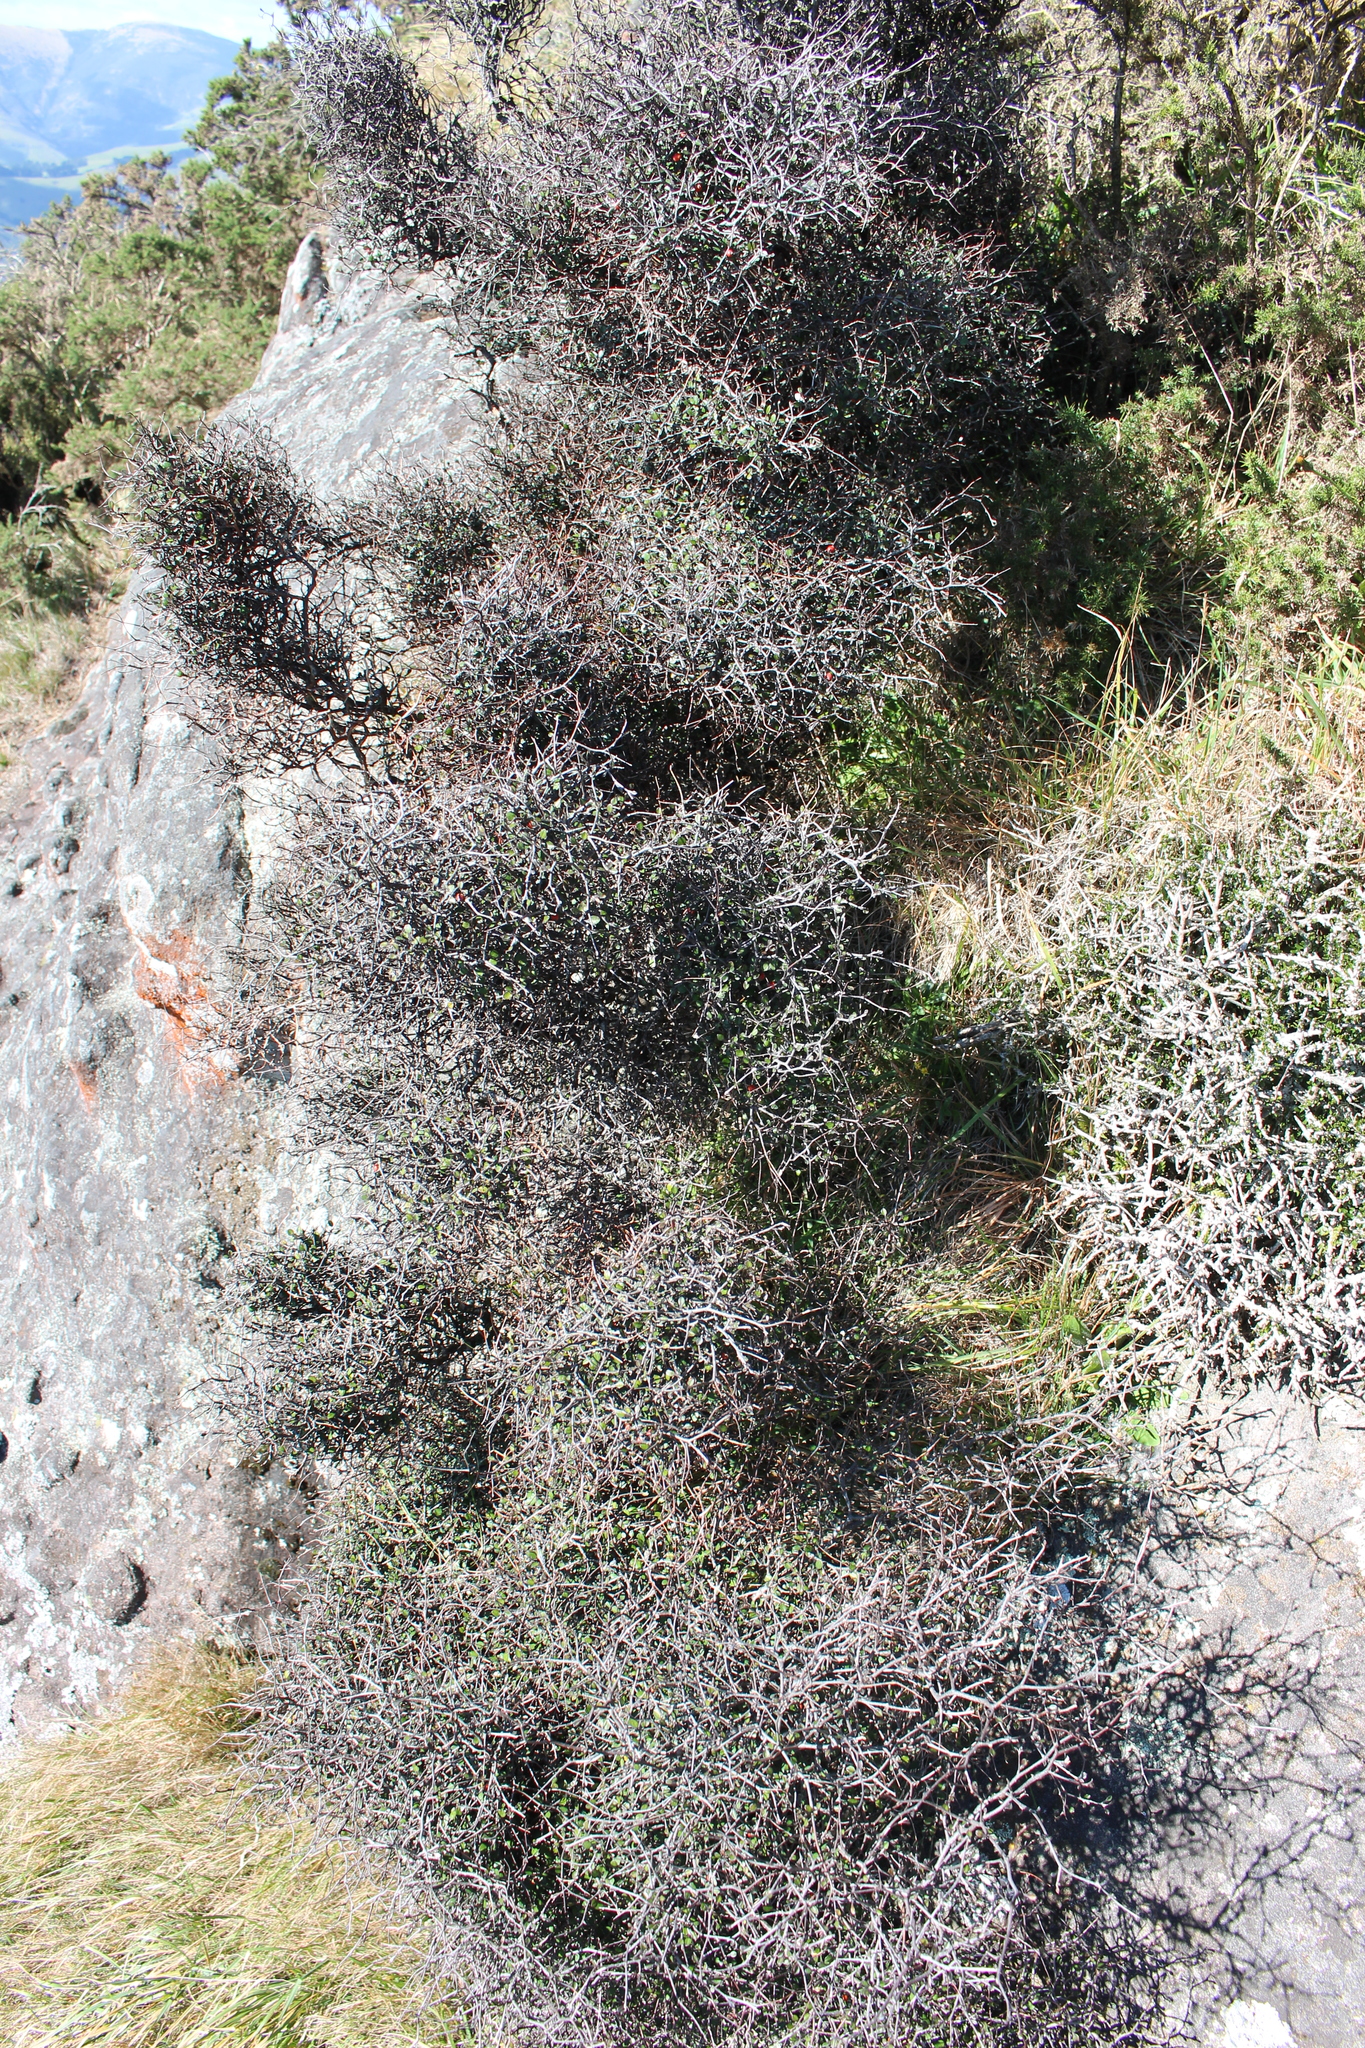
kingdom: Plantae
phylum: Tracheophyta
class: Magnoliopsida
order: Asterales
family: Argophyllaceae
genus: Corokia
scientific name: Corokia cotoneaster
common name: Wire nettingbush
